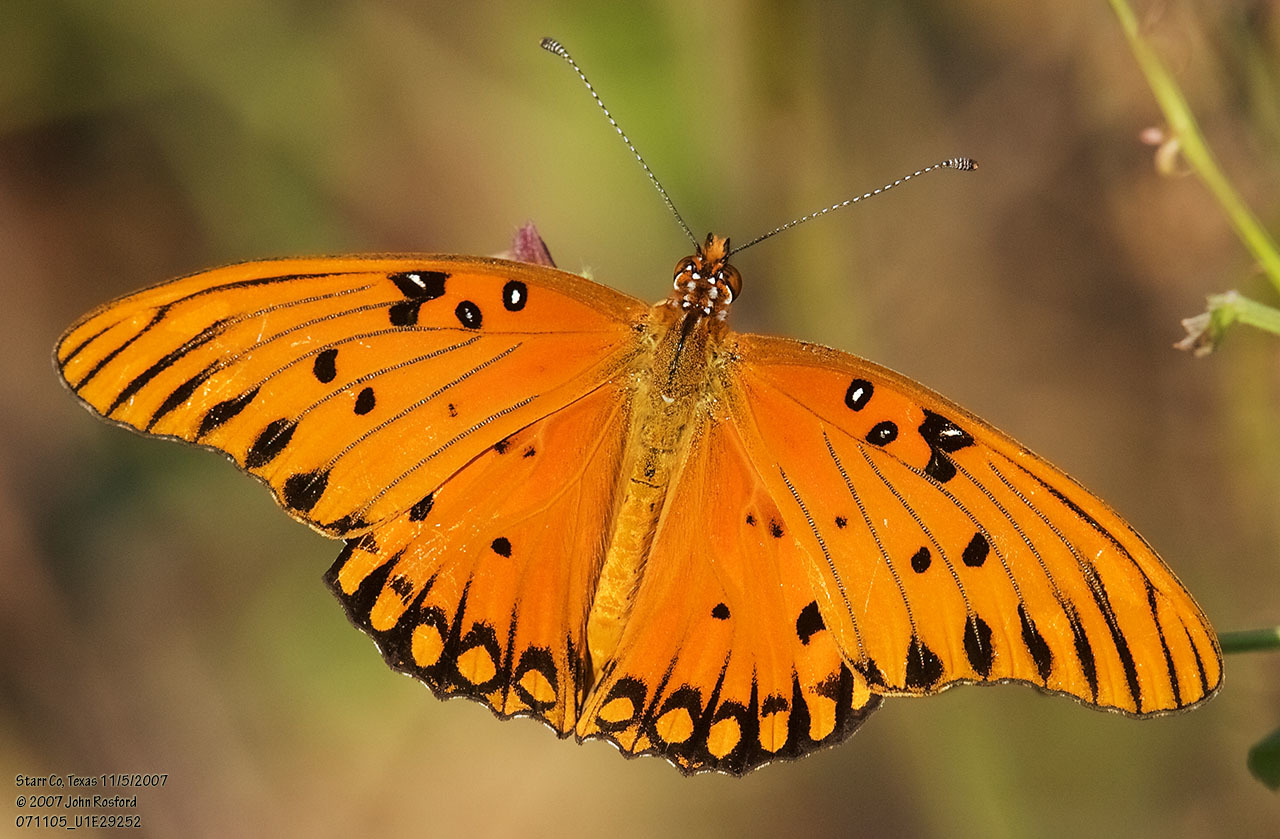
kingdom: Animalia
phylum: Arthropoda
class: Insecta
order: Lepidoptera
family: Nymphalidae
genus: Dione
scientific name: Dione vanillae
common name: Gulf fritillary
